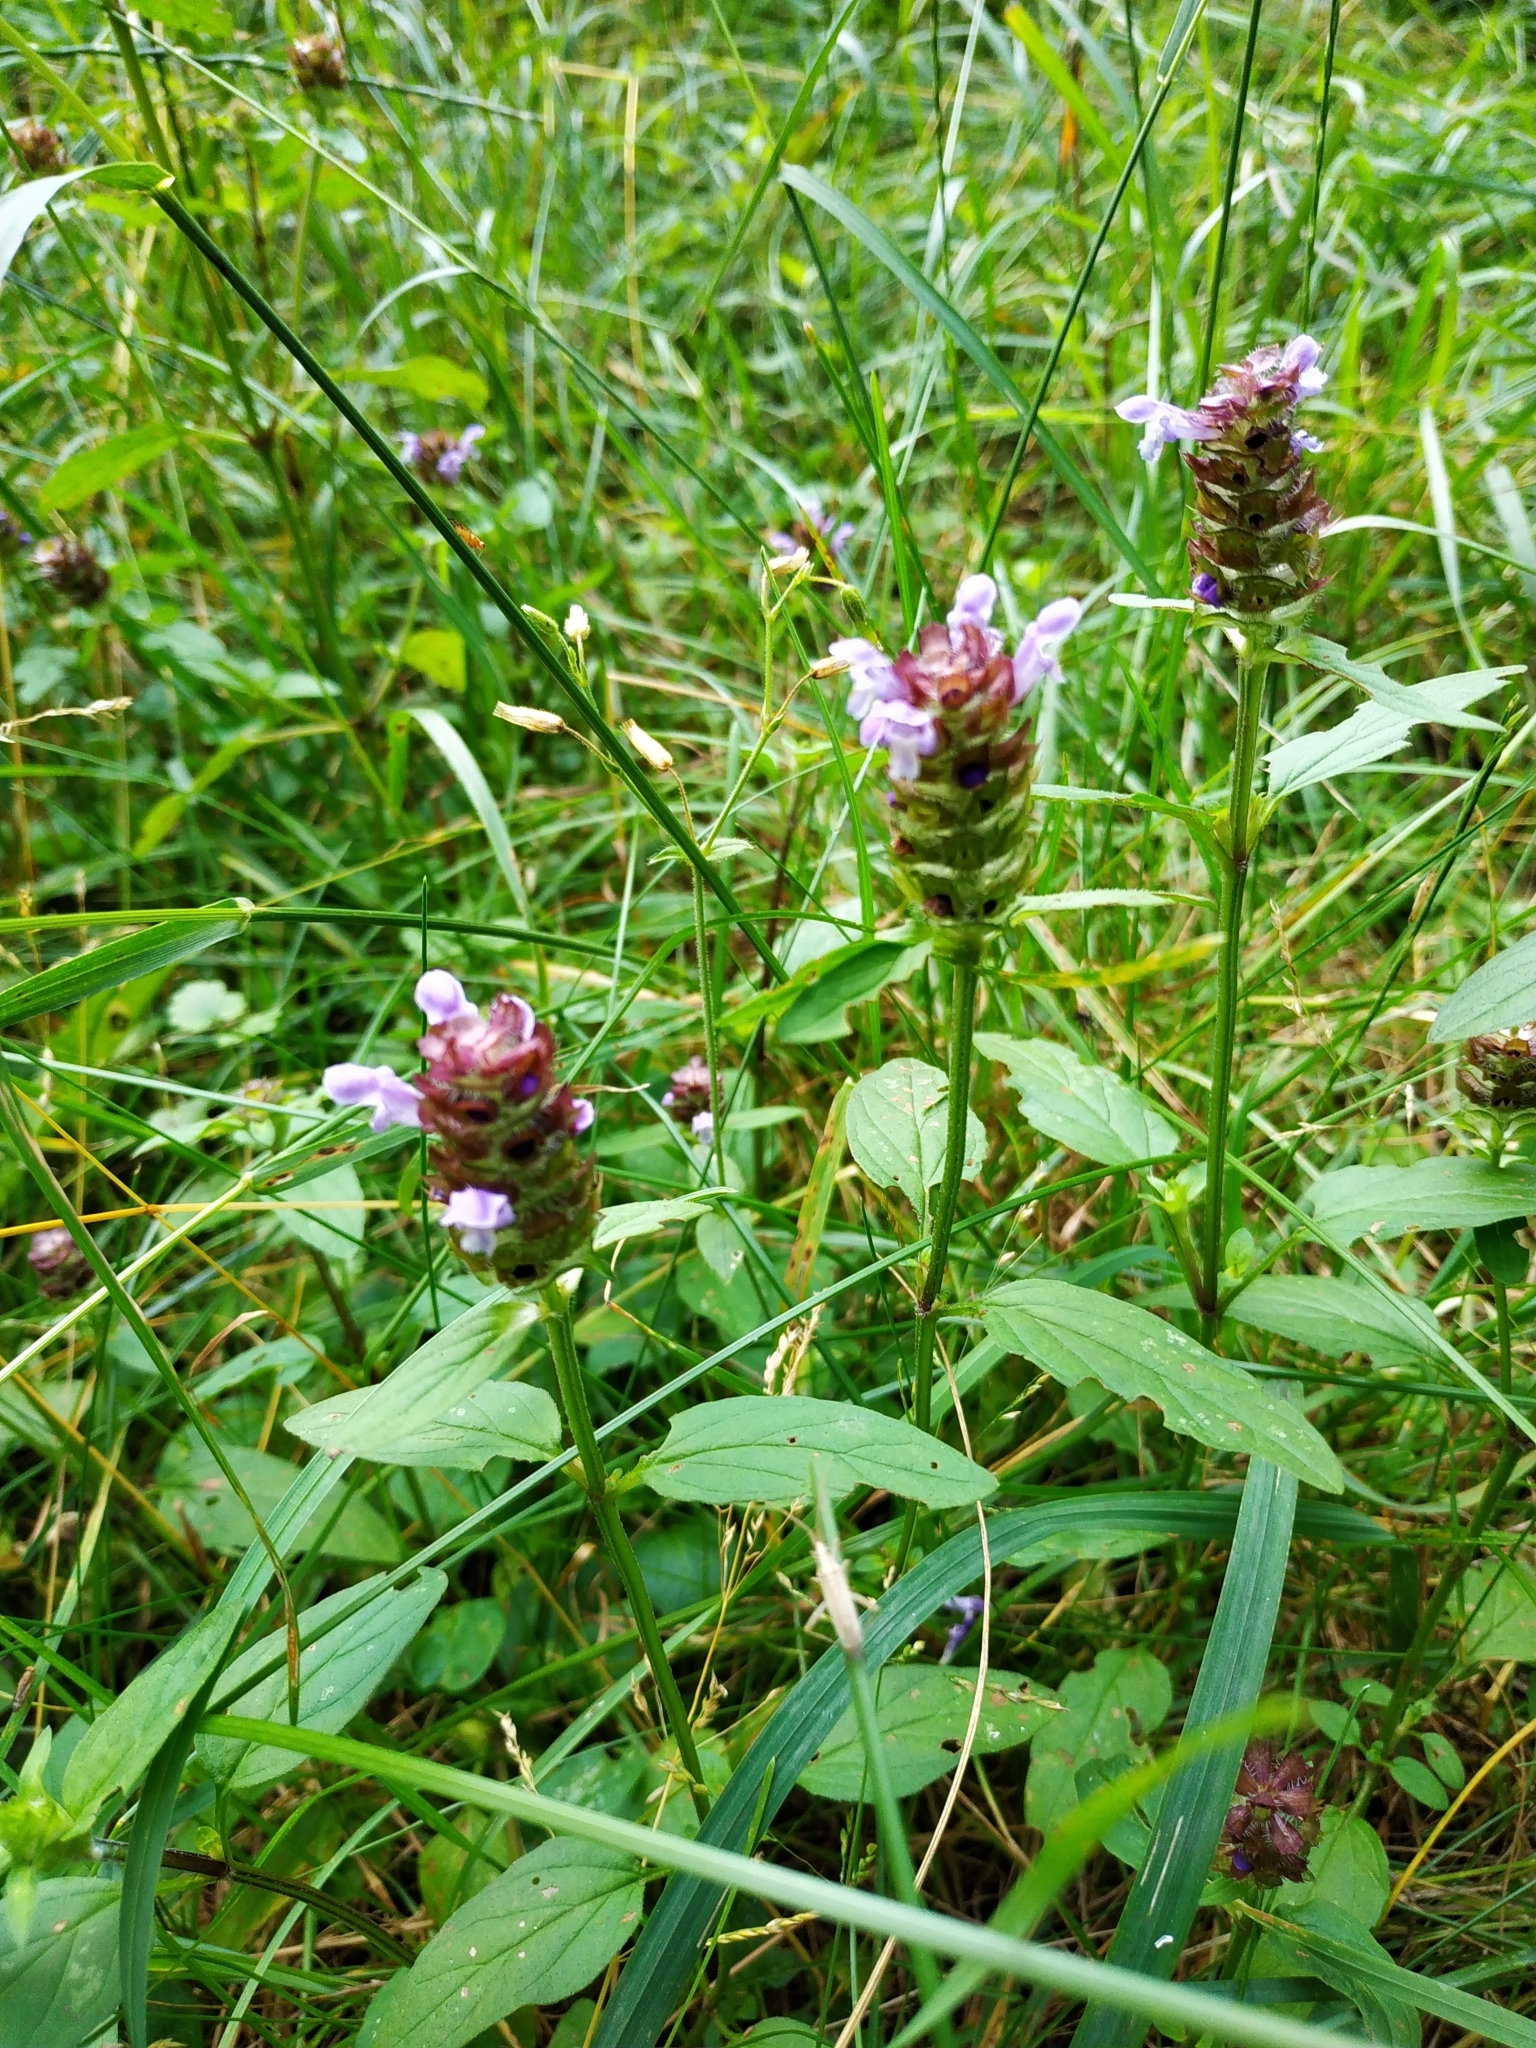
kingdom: Plantae
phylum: Tracheophyta
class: Magnoliopsida
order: Lamiales
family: Lamiaceae
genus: Prunella
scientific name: Prunella vulgaris
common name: Heal-all
